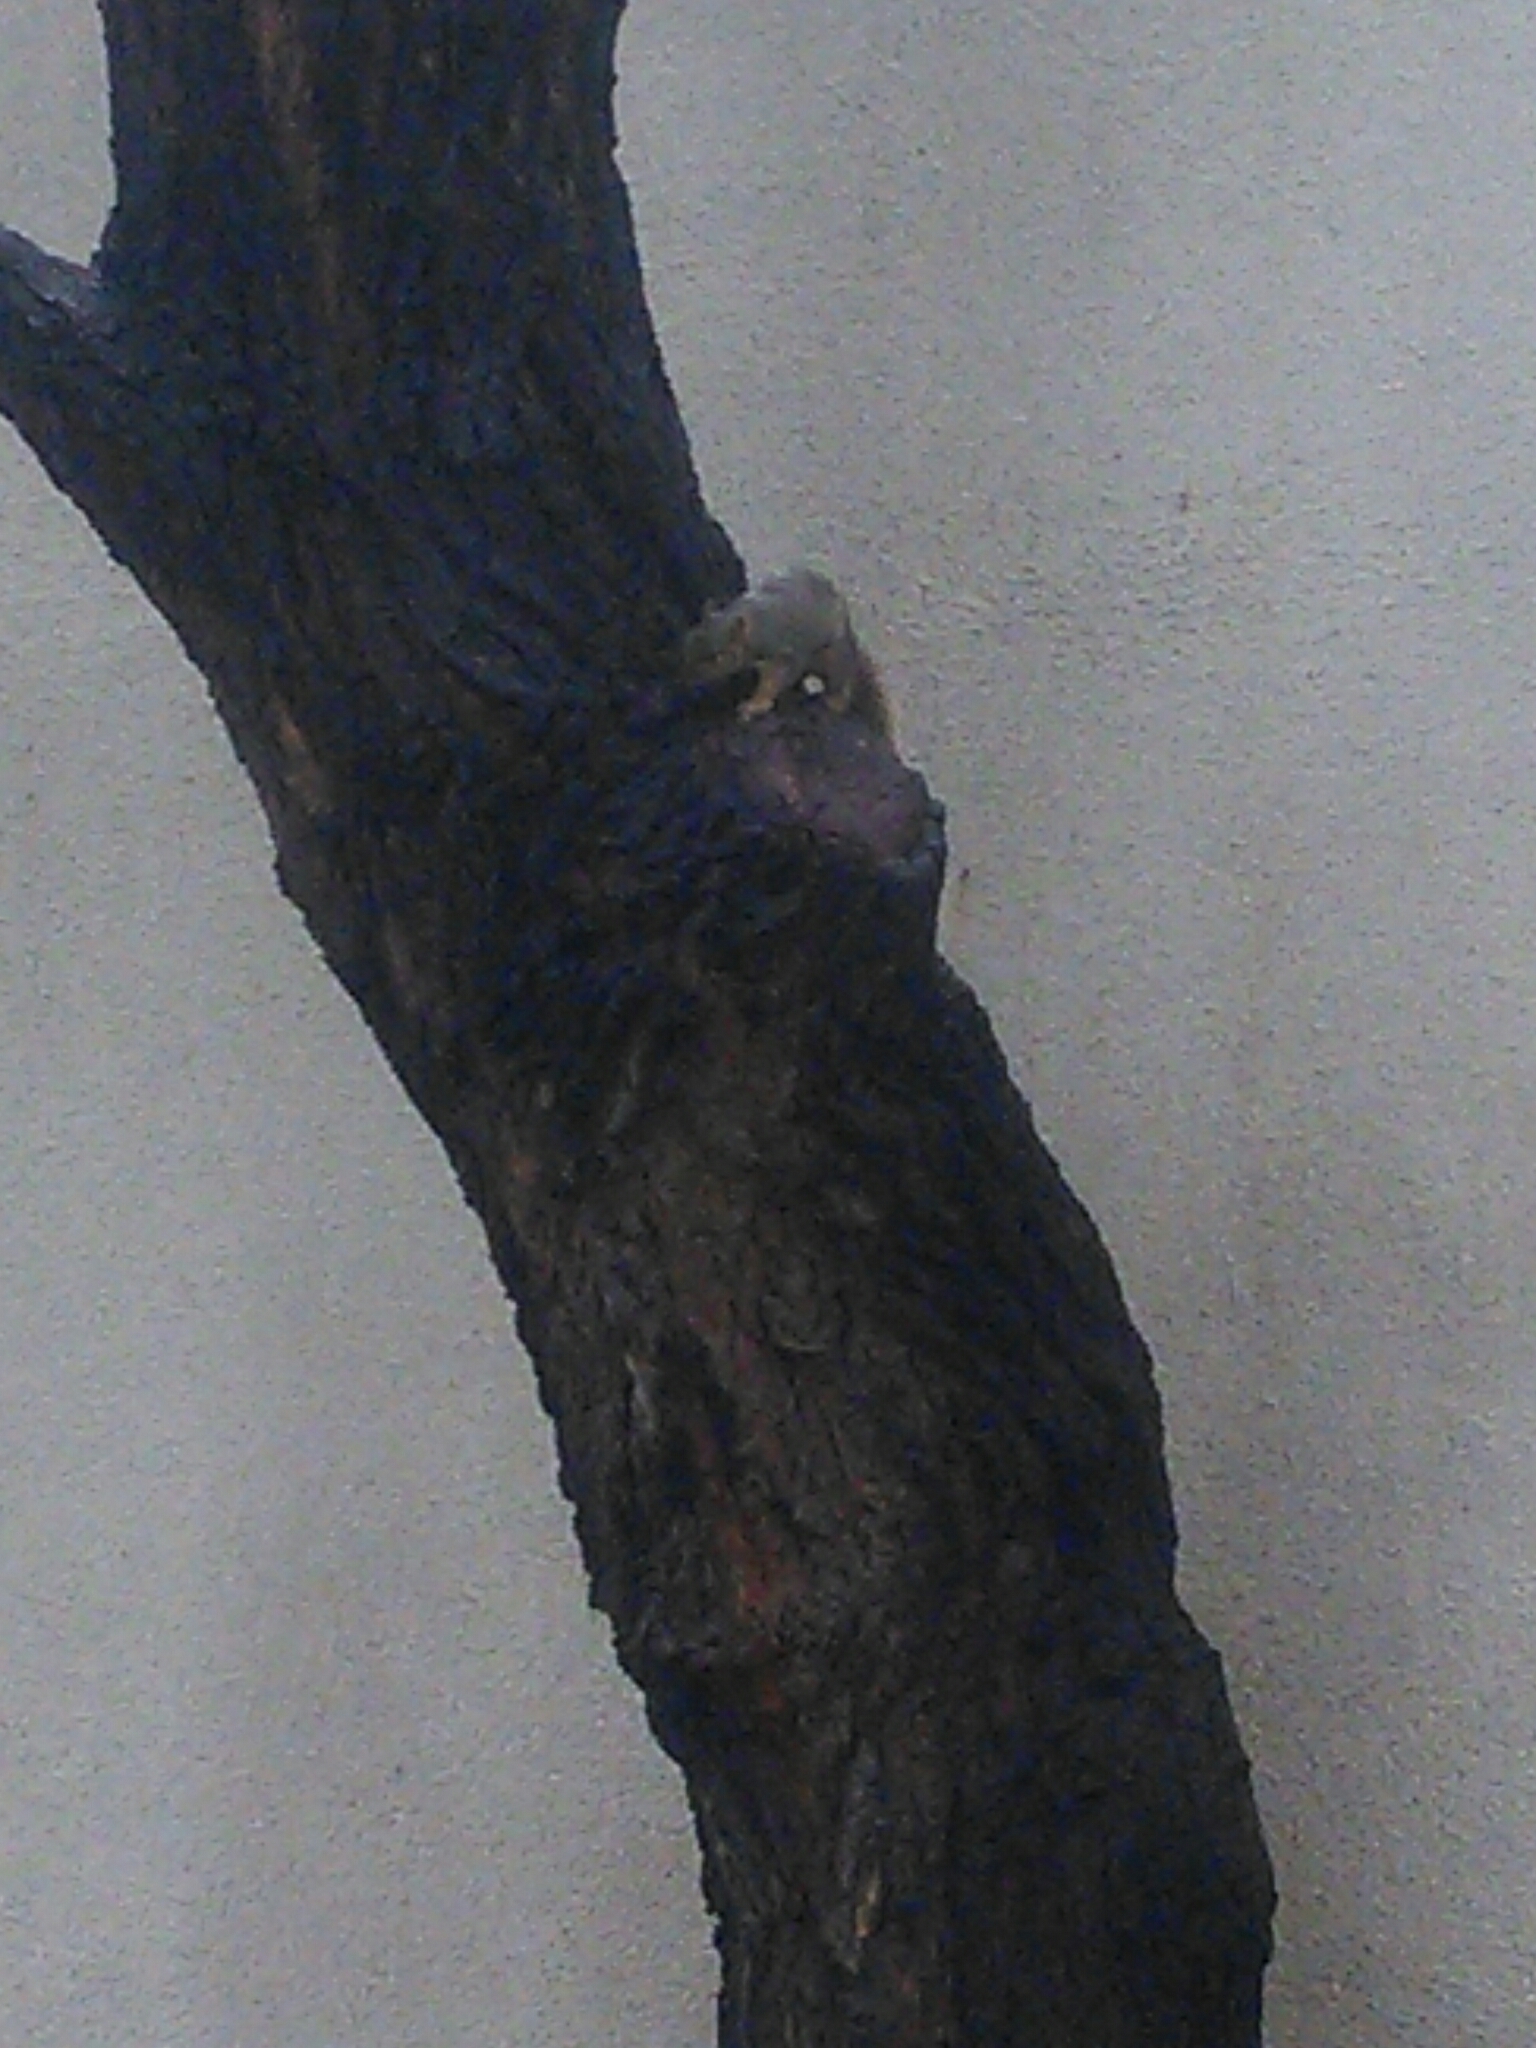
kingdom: Animalia
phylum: Chordata
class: Mammalia
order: Rodentia
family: Sciuridae
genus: Sciurus
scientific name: Sciurus niger
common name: Fox squirrel
